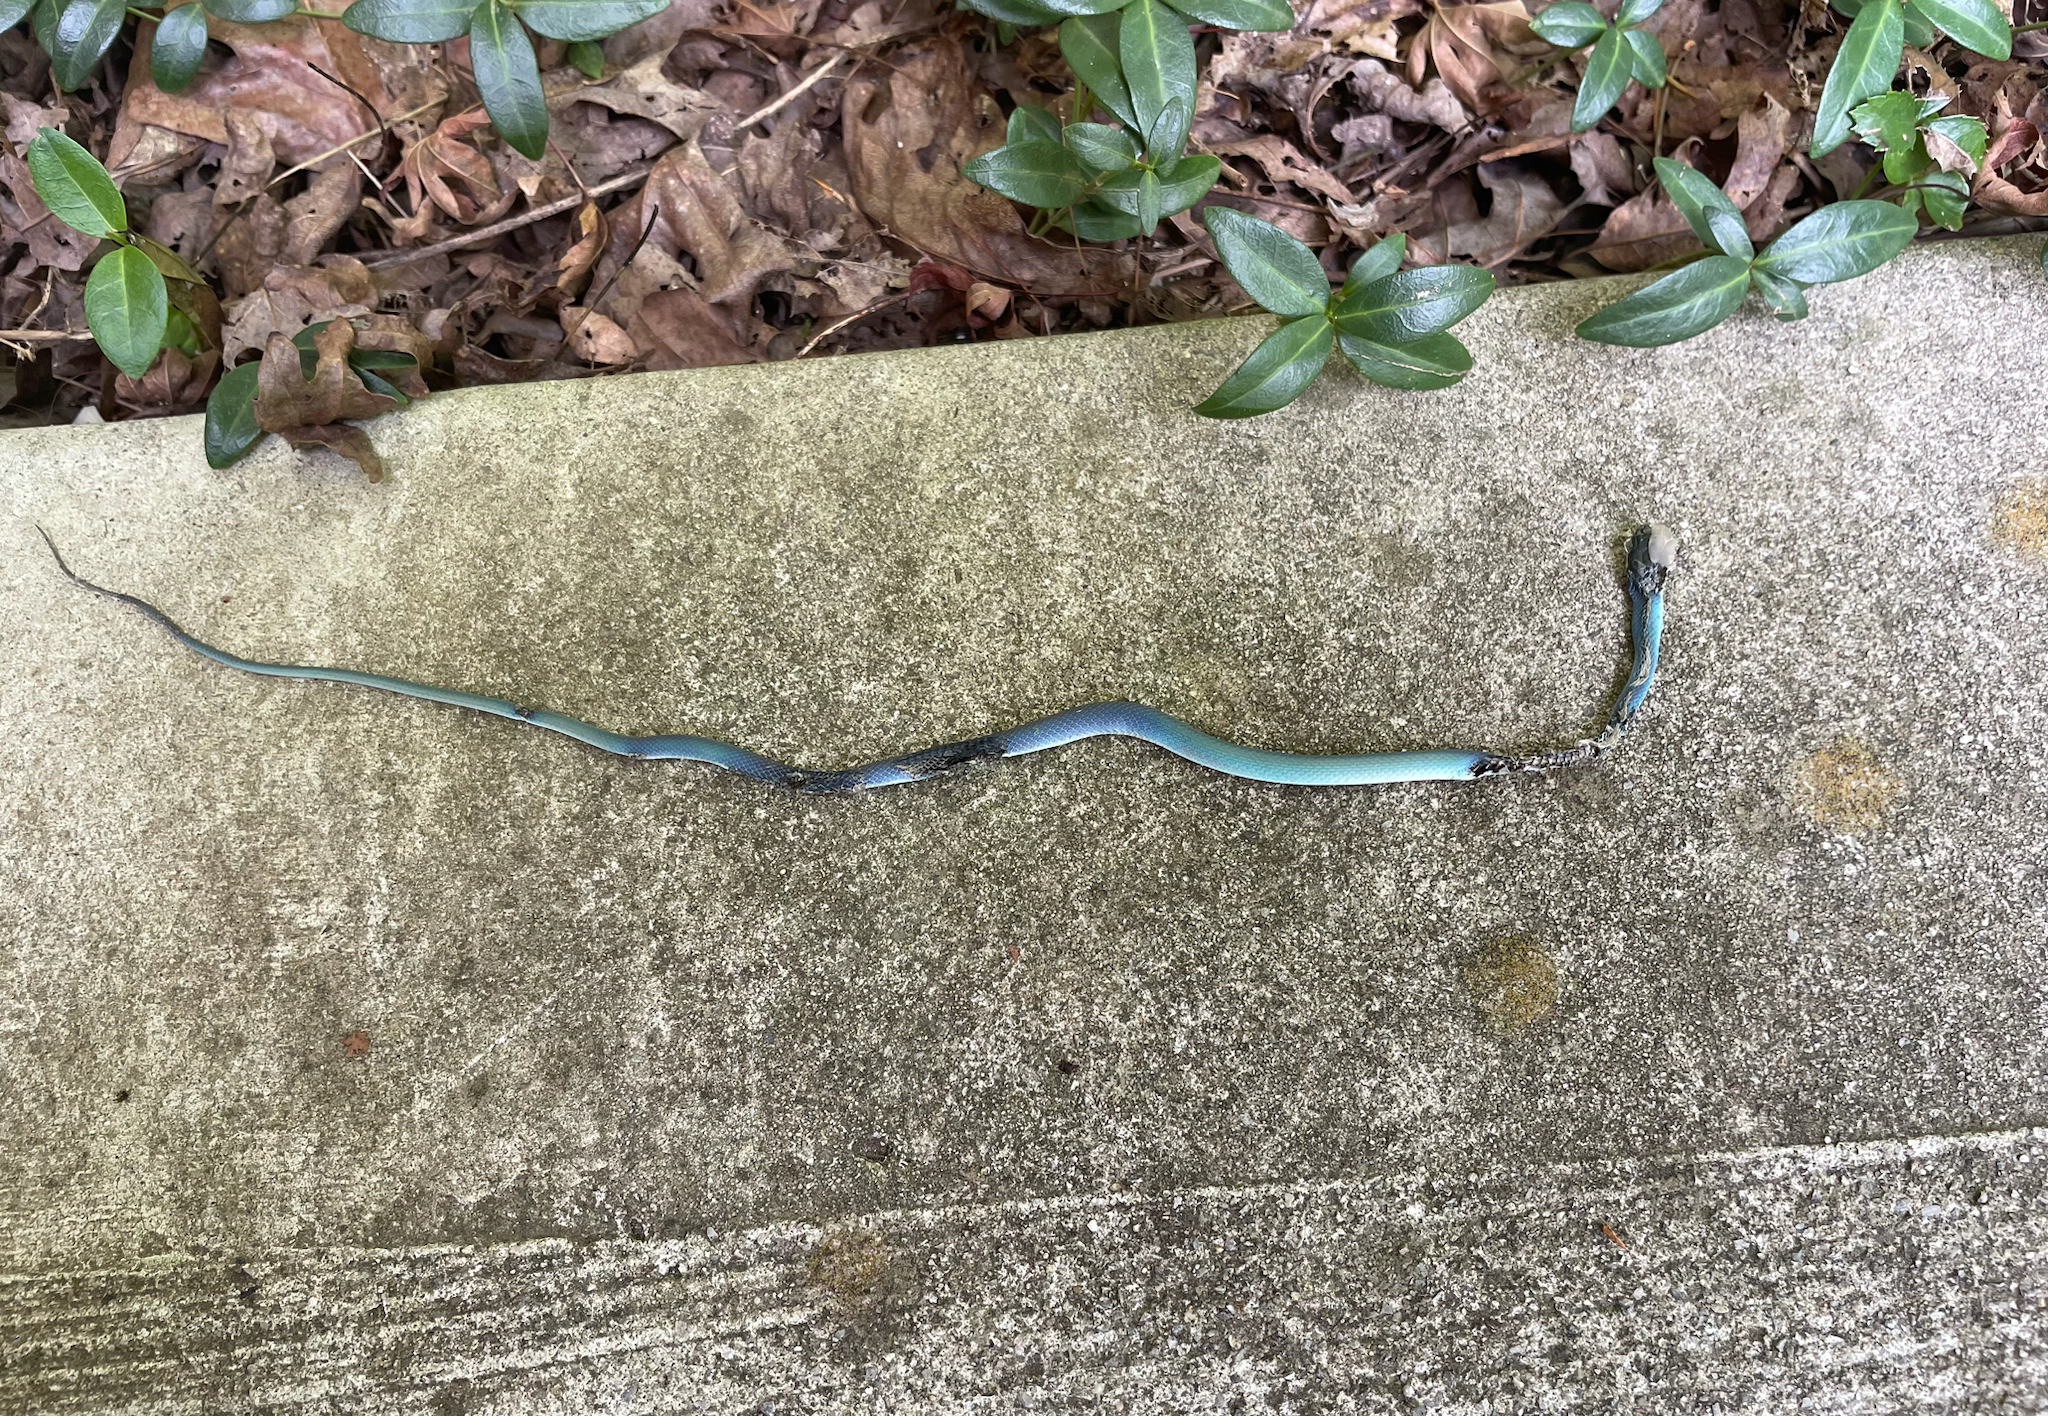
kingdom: Animalia
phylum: Chordata
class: Squamata
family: Colubridae
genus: Opheodrys
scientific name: Opheodrys aestivus
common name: Rough greensnake
